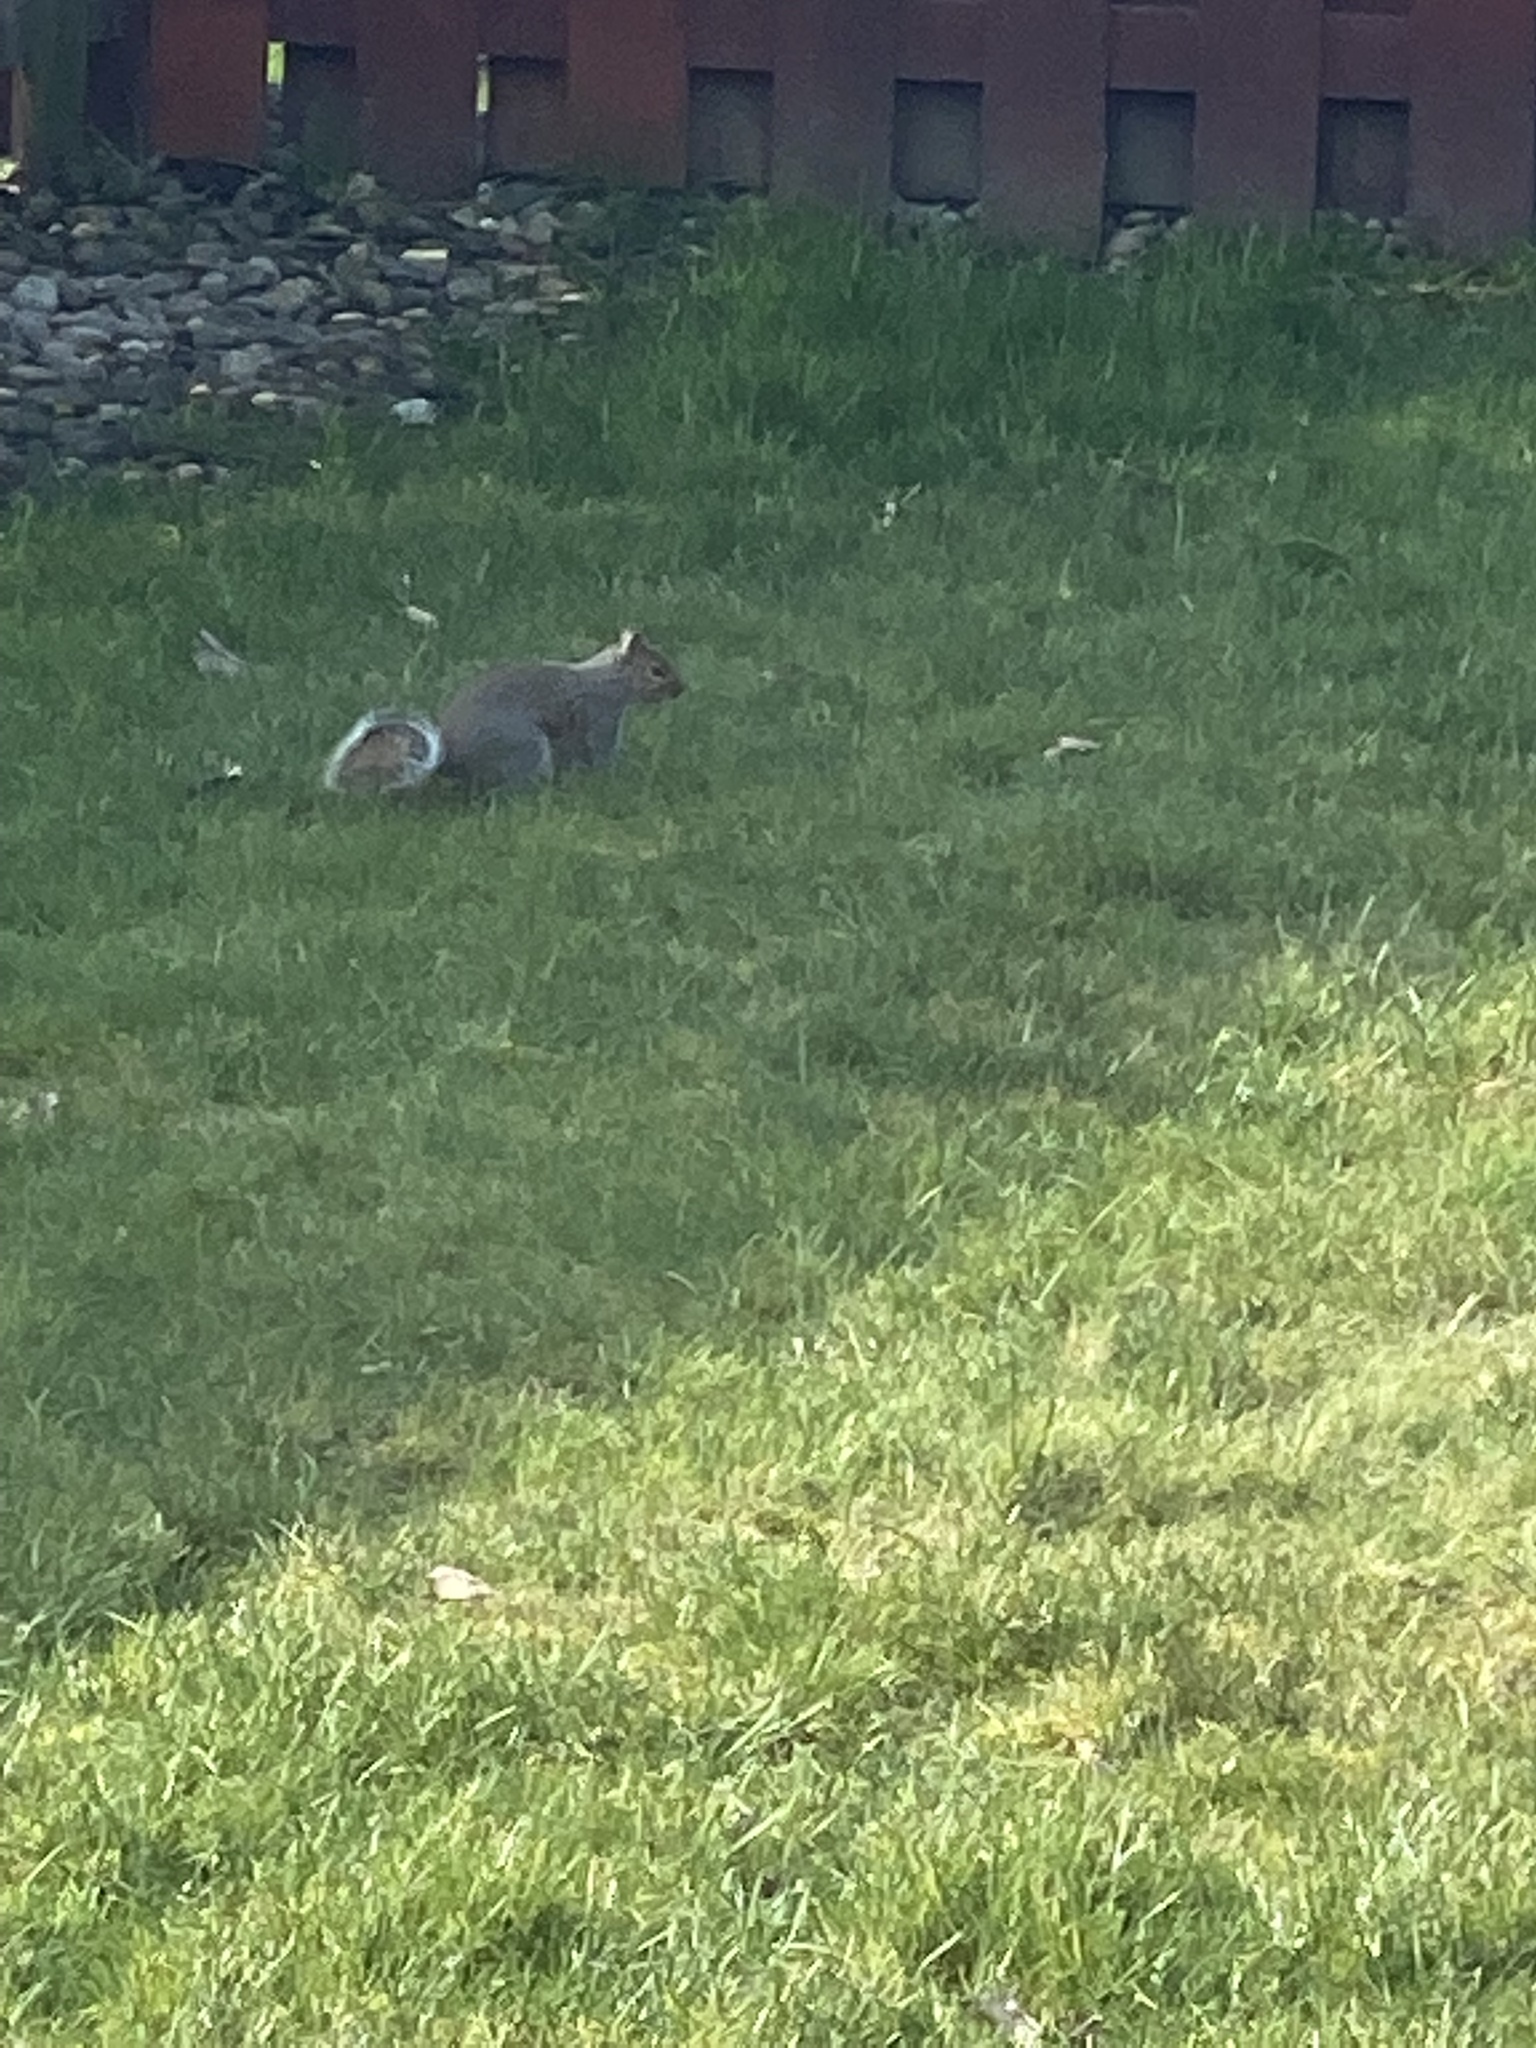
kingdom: Animalia
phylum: Chordata
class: Mammalia
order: Rodentia
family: Sciuridae
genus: Sciurus
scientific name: Sciurus carolinensis
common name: Eastern gray squirrel
